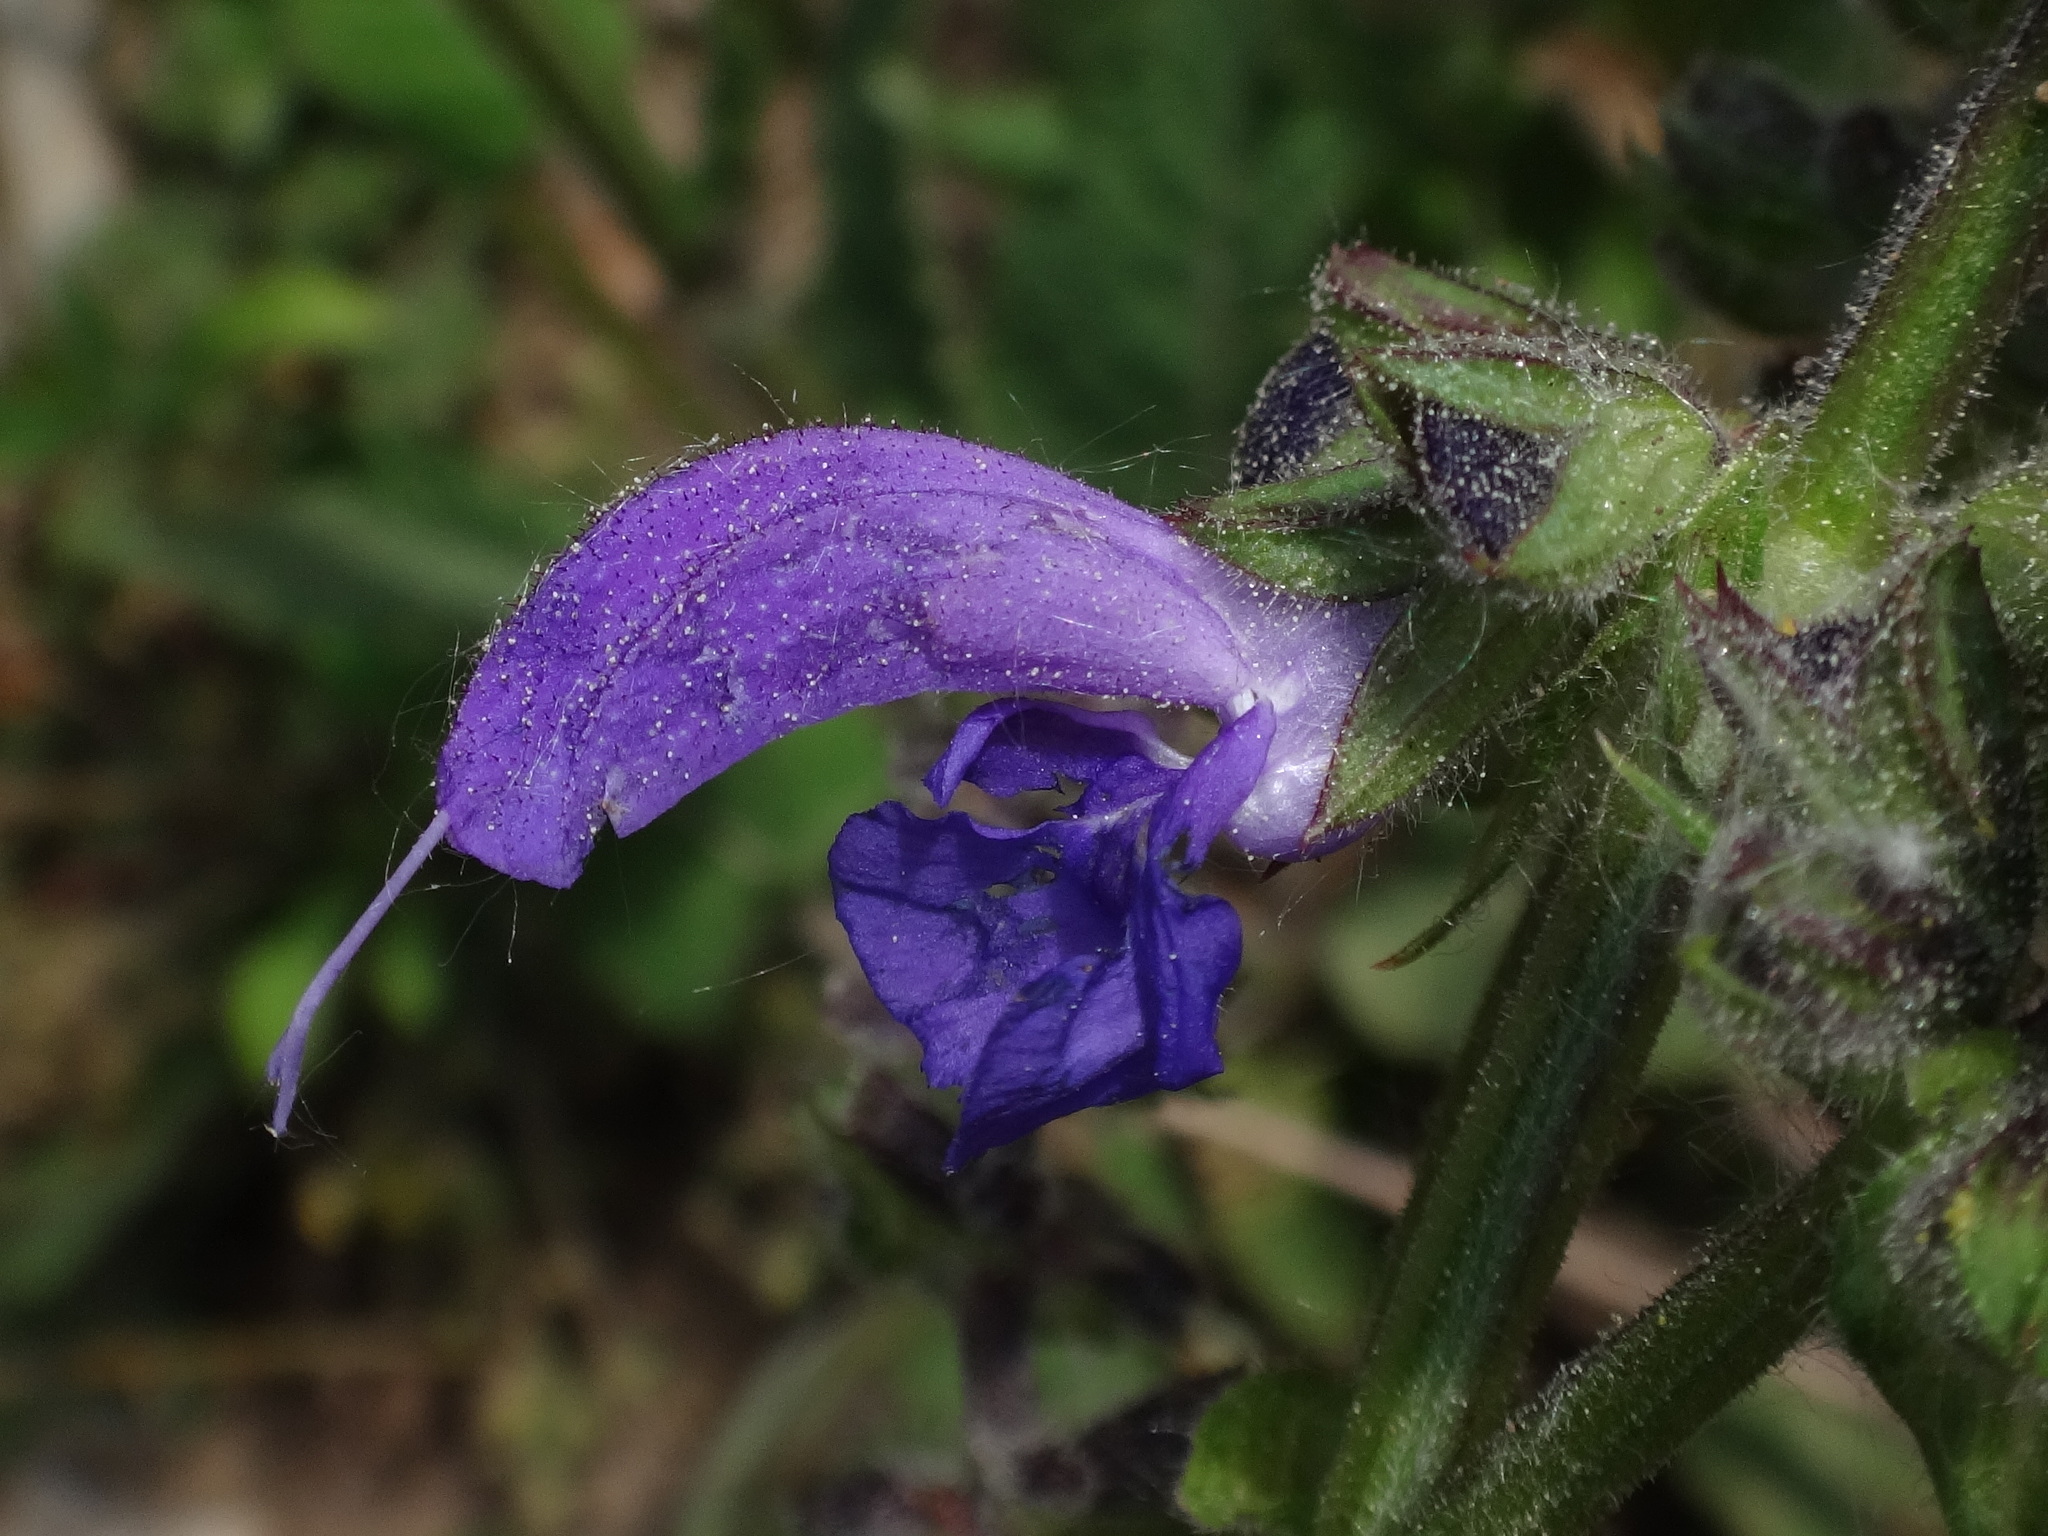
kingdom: Plantae
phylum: Tracheophyta
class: Magnoliopsida
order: Lamiales
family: Lamiaceae
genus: Salvia
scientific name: Salvia pratensis
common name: Meadow sage
